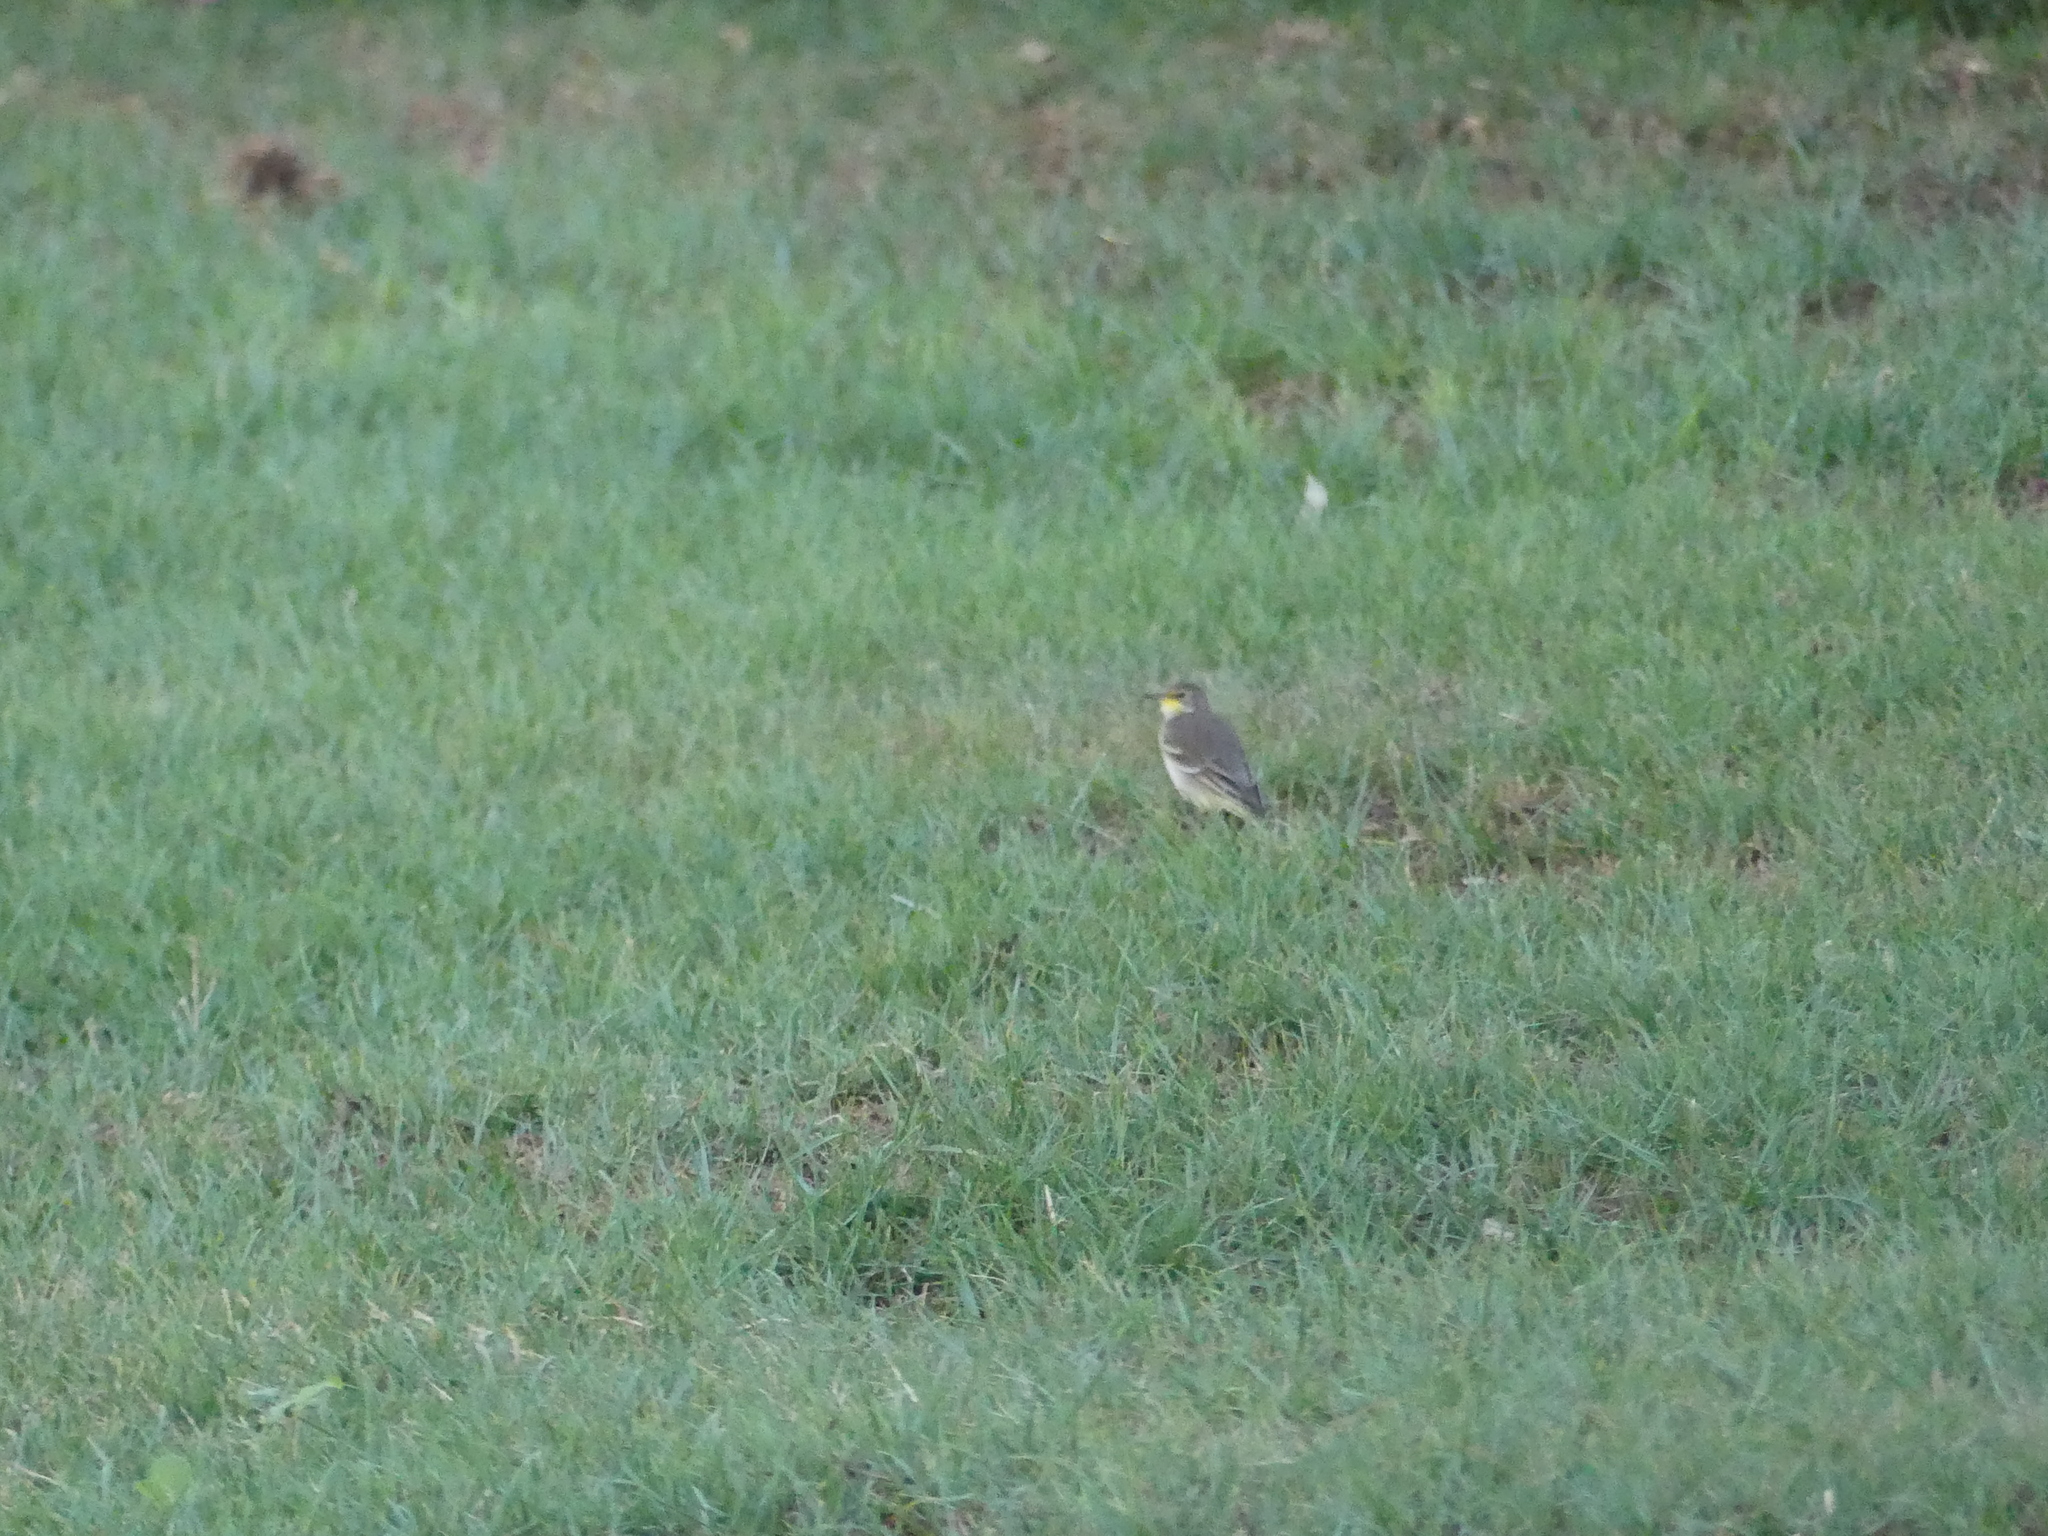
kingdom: Animalia
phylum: Chordata
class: Aves
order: Passeriformes
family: Motacillidae
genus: Motacilla
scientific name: Motacilla flava
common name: Western yellow wagtail
